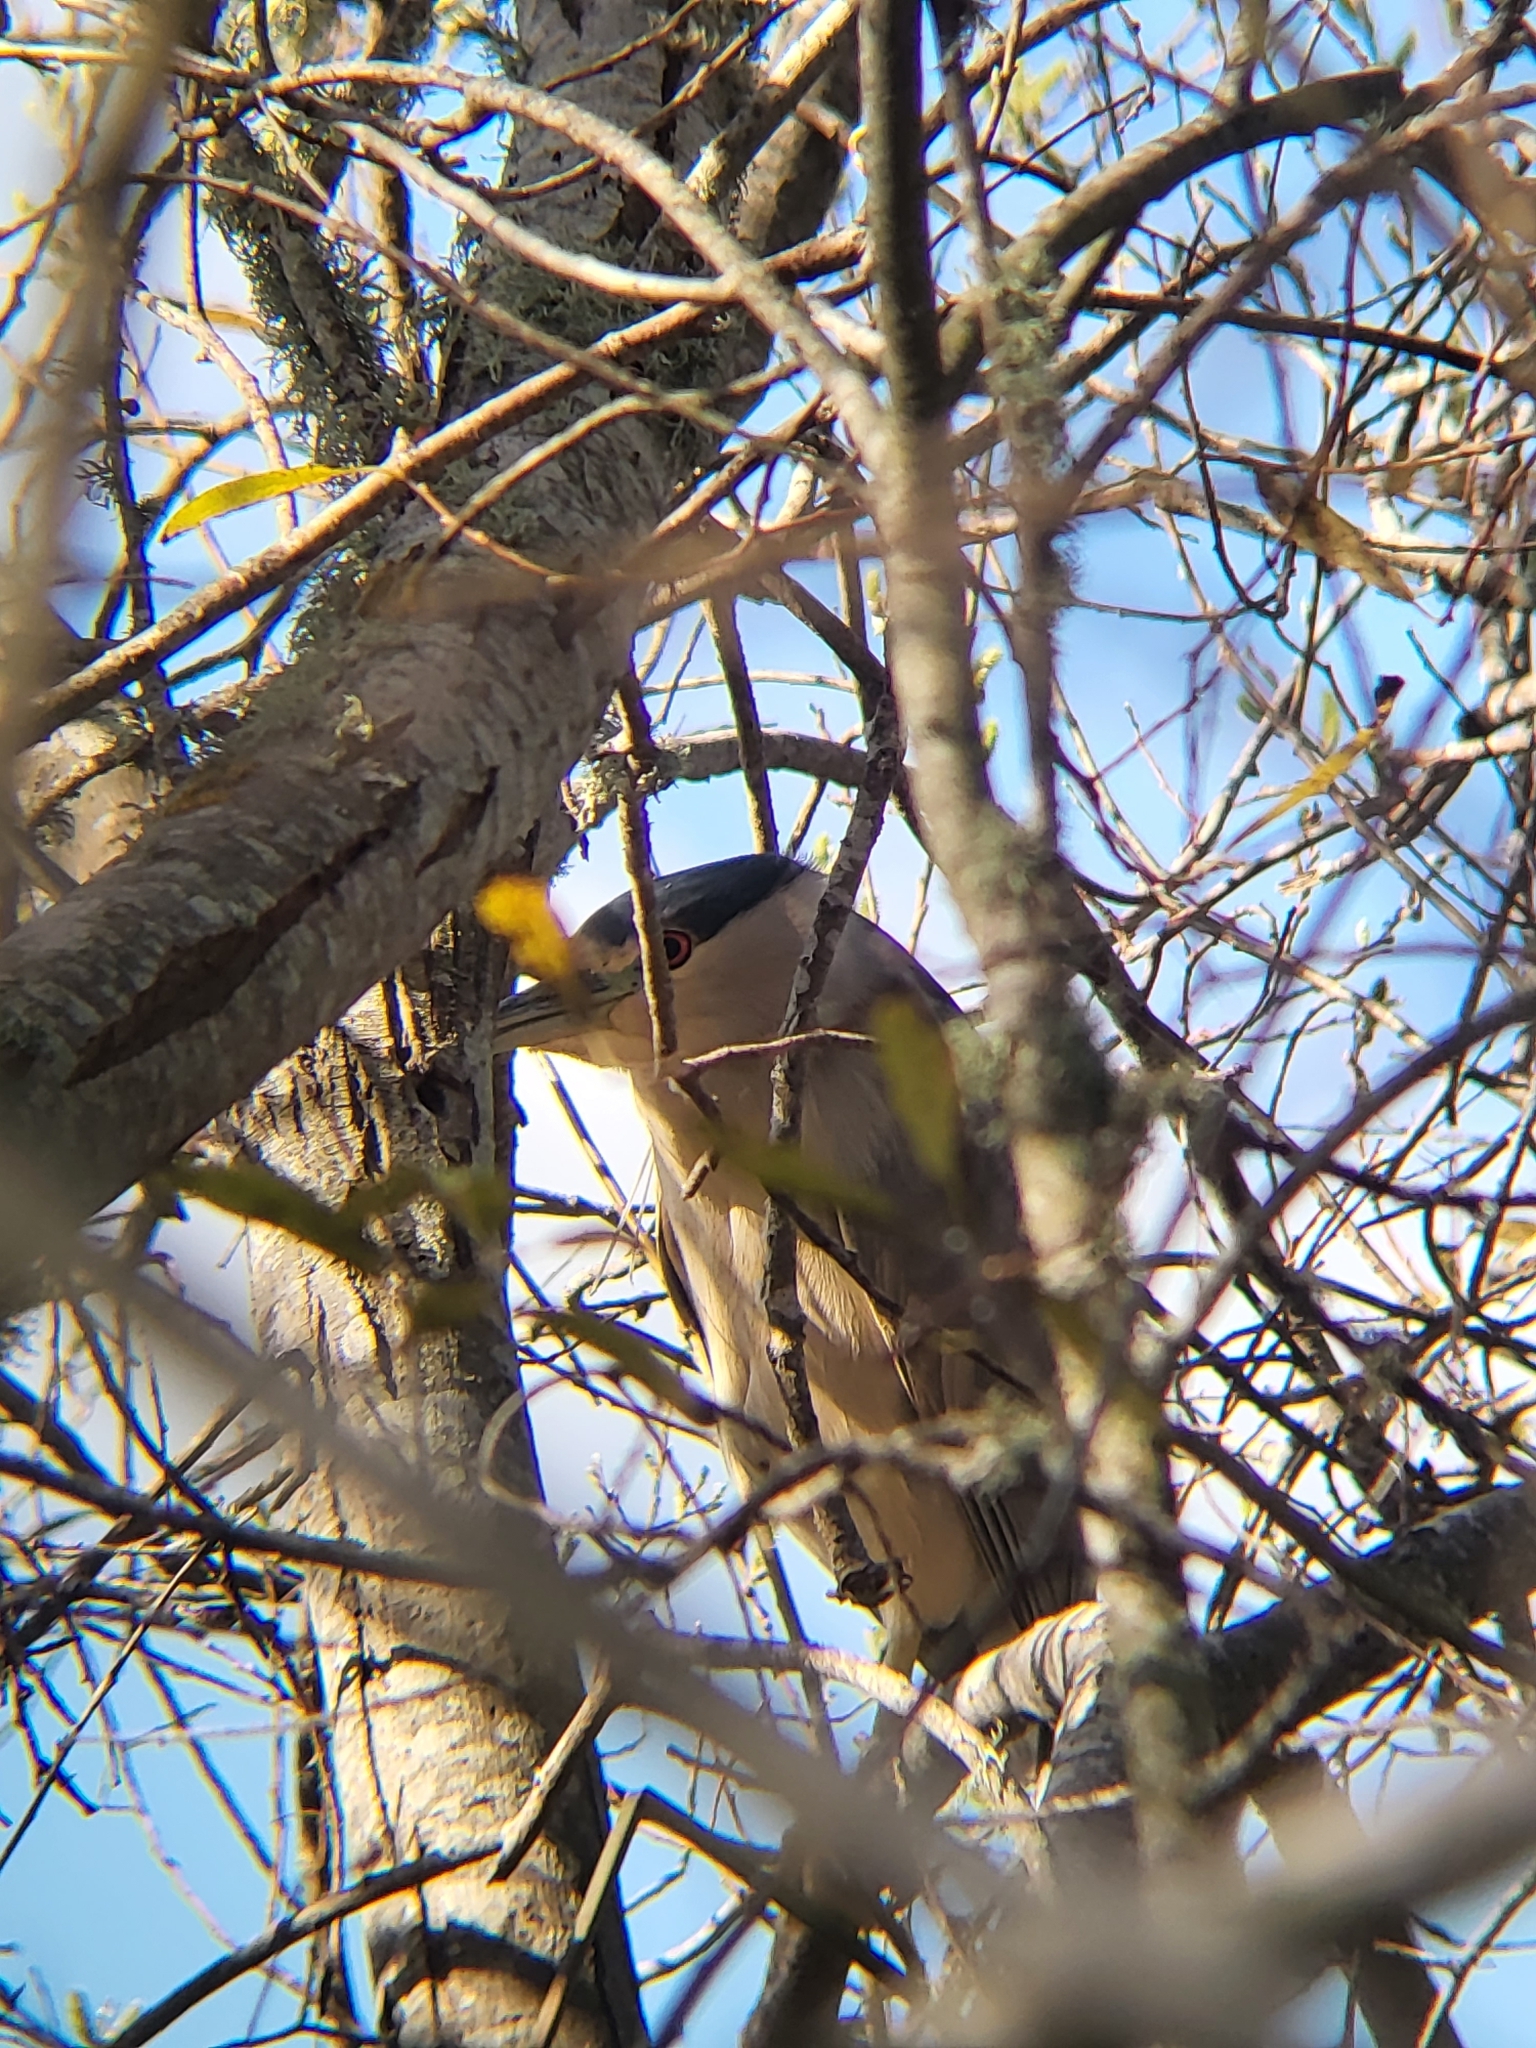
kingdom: Animalia
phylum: Chordata
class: Aves
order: Pelecaniformes
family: Ardeidae
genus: Nycticorax
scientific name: Nycticorax nycticorax
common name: Black-crowned night heron
